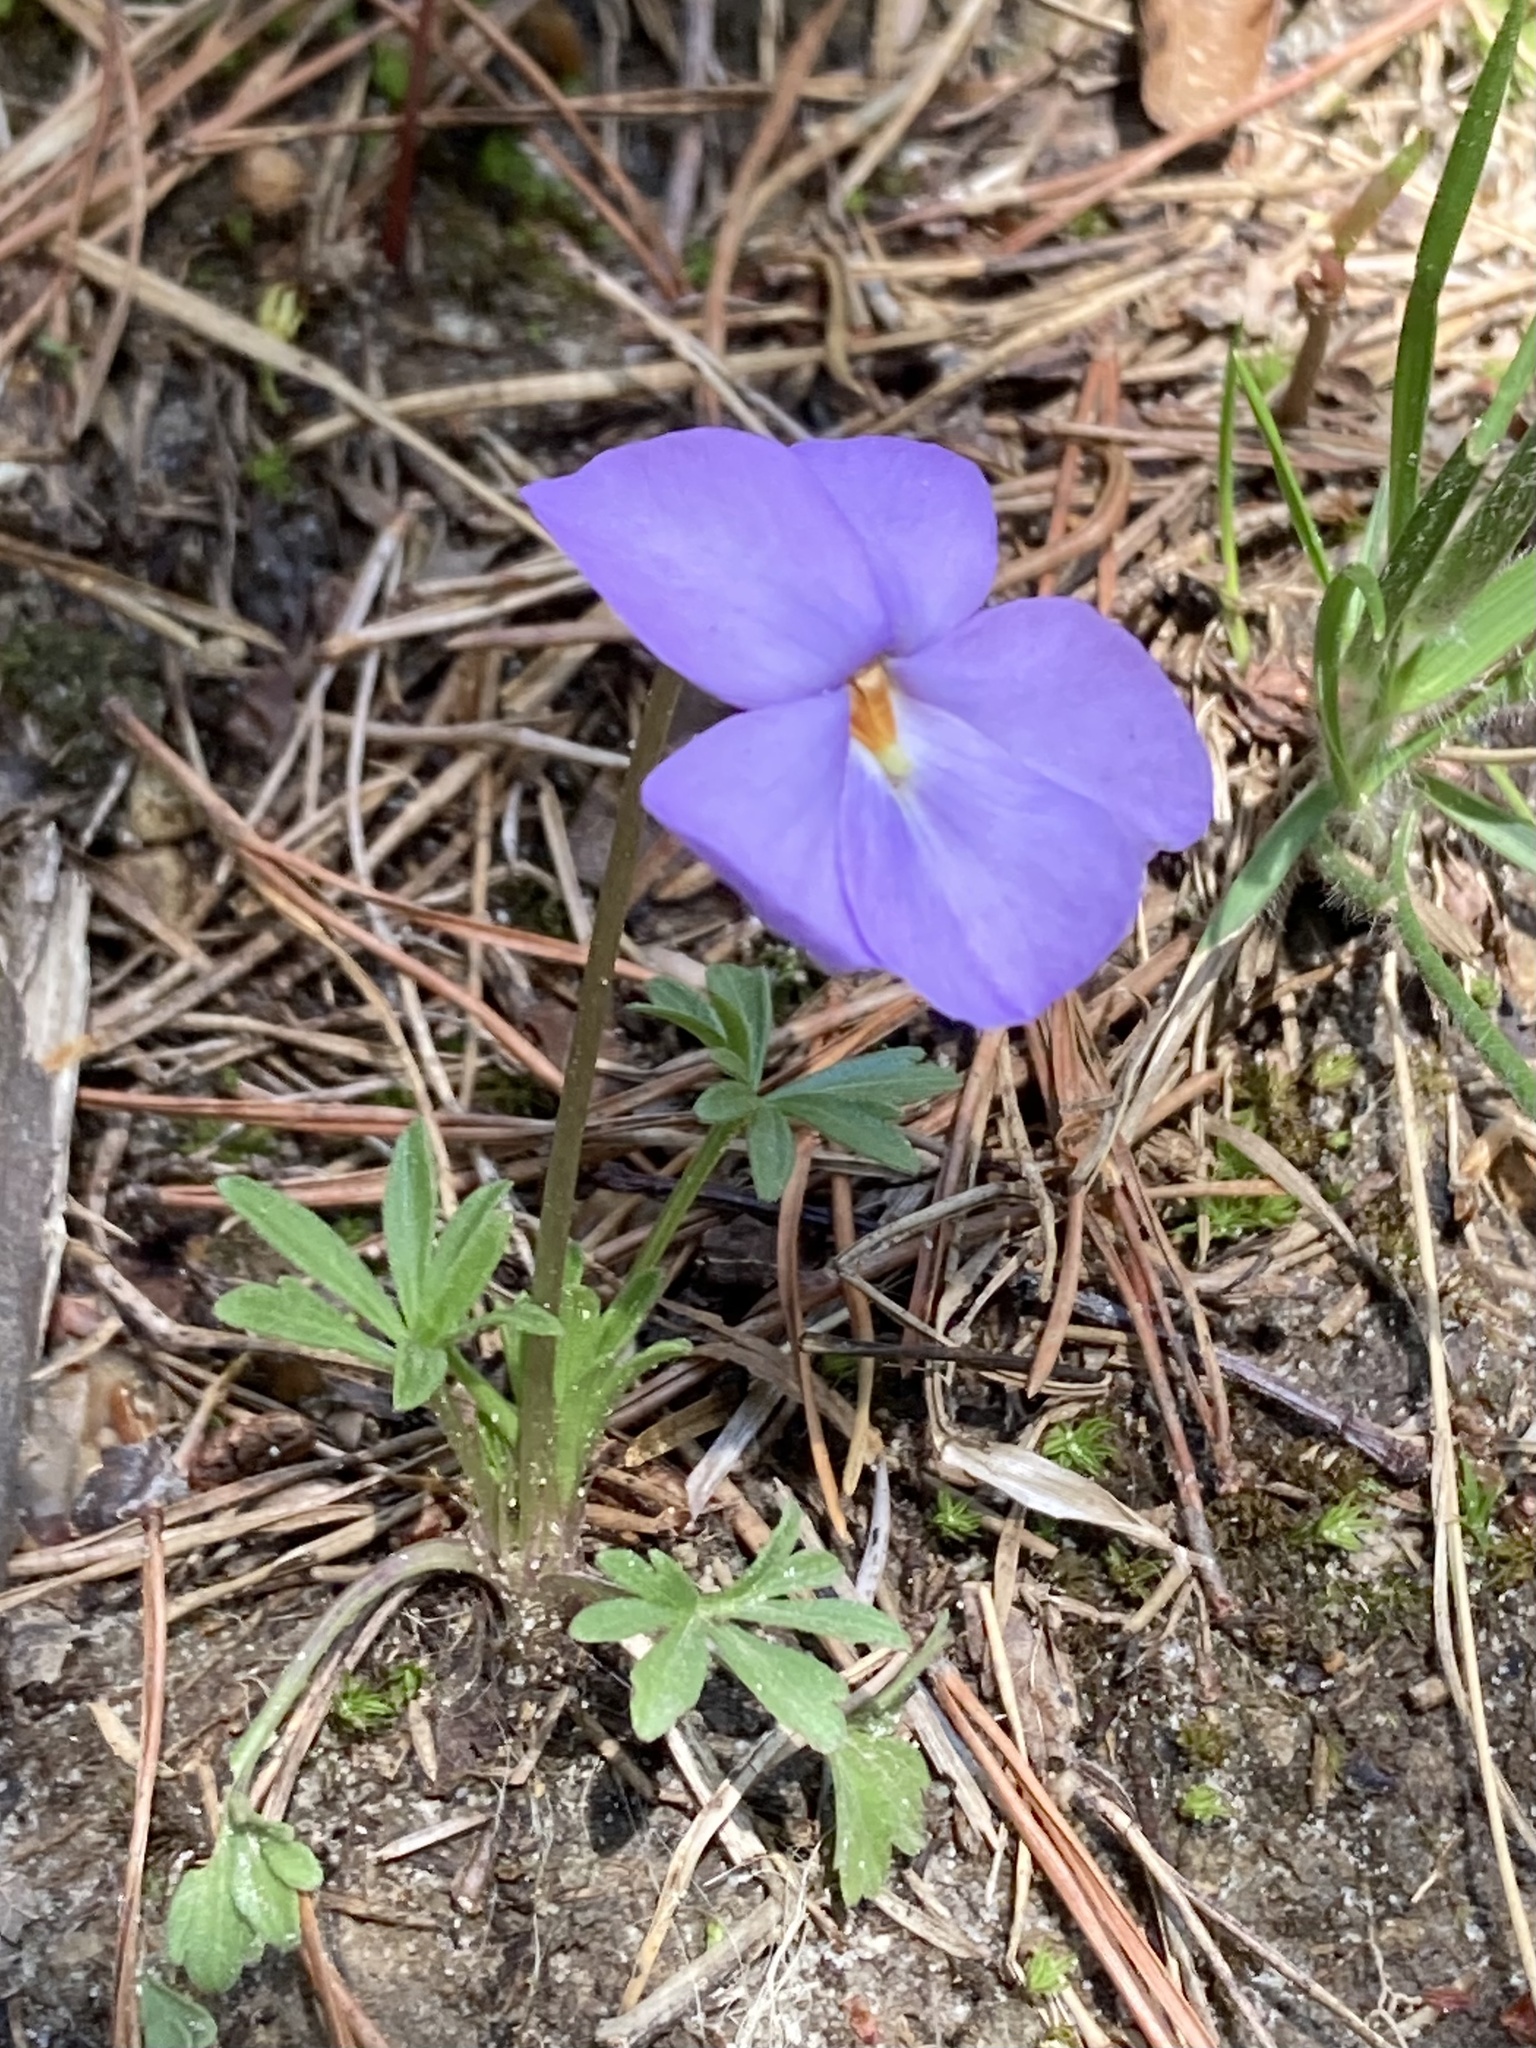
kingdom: Plantae
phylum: Tracheophyta
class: Magnoliopsida
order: Malpighiales
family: Violaceae
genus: Viola
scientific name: Viola pedata
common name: Pansy violet
